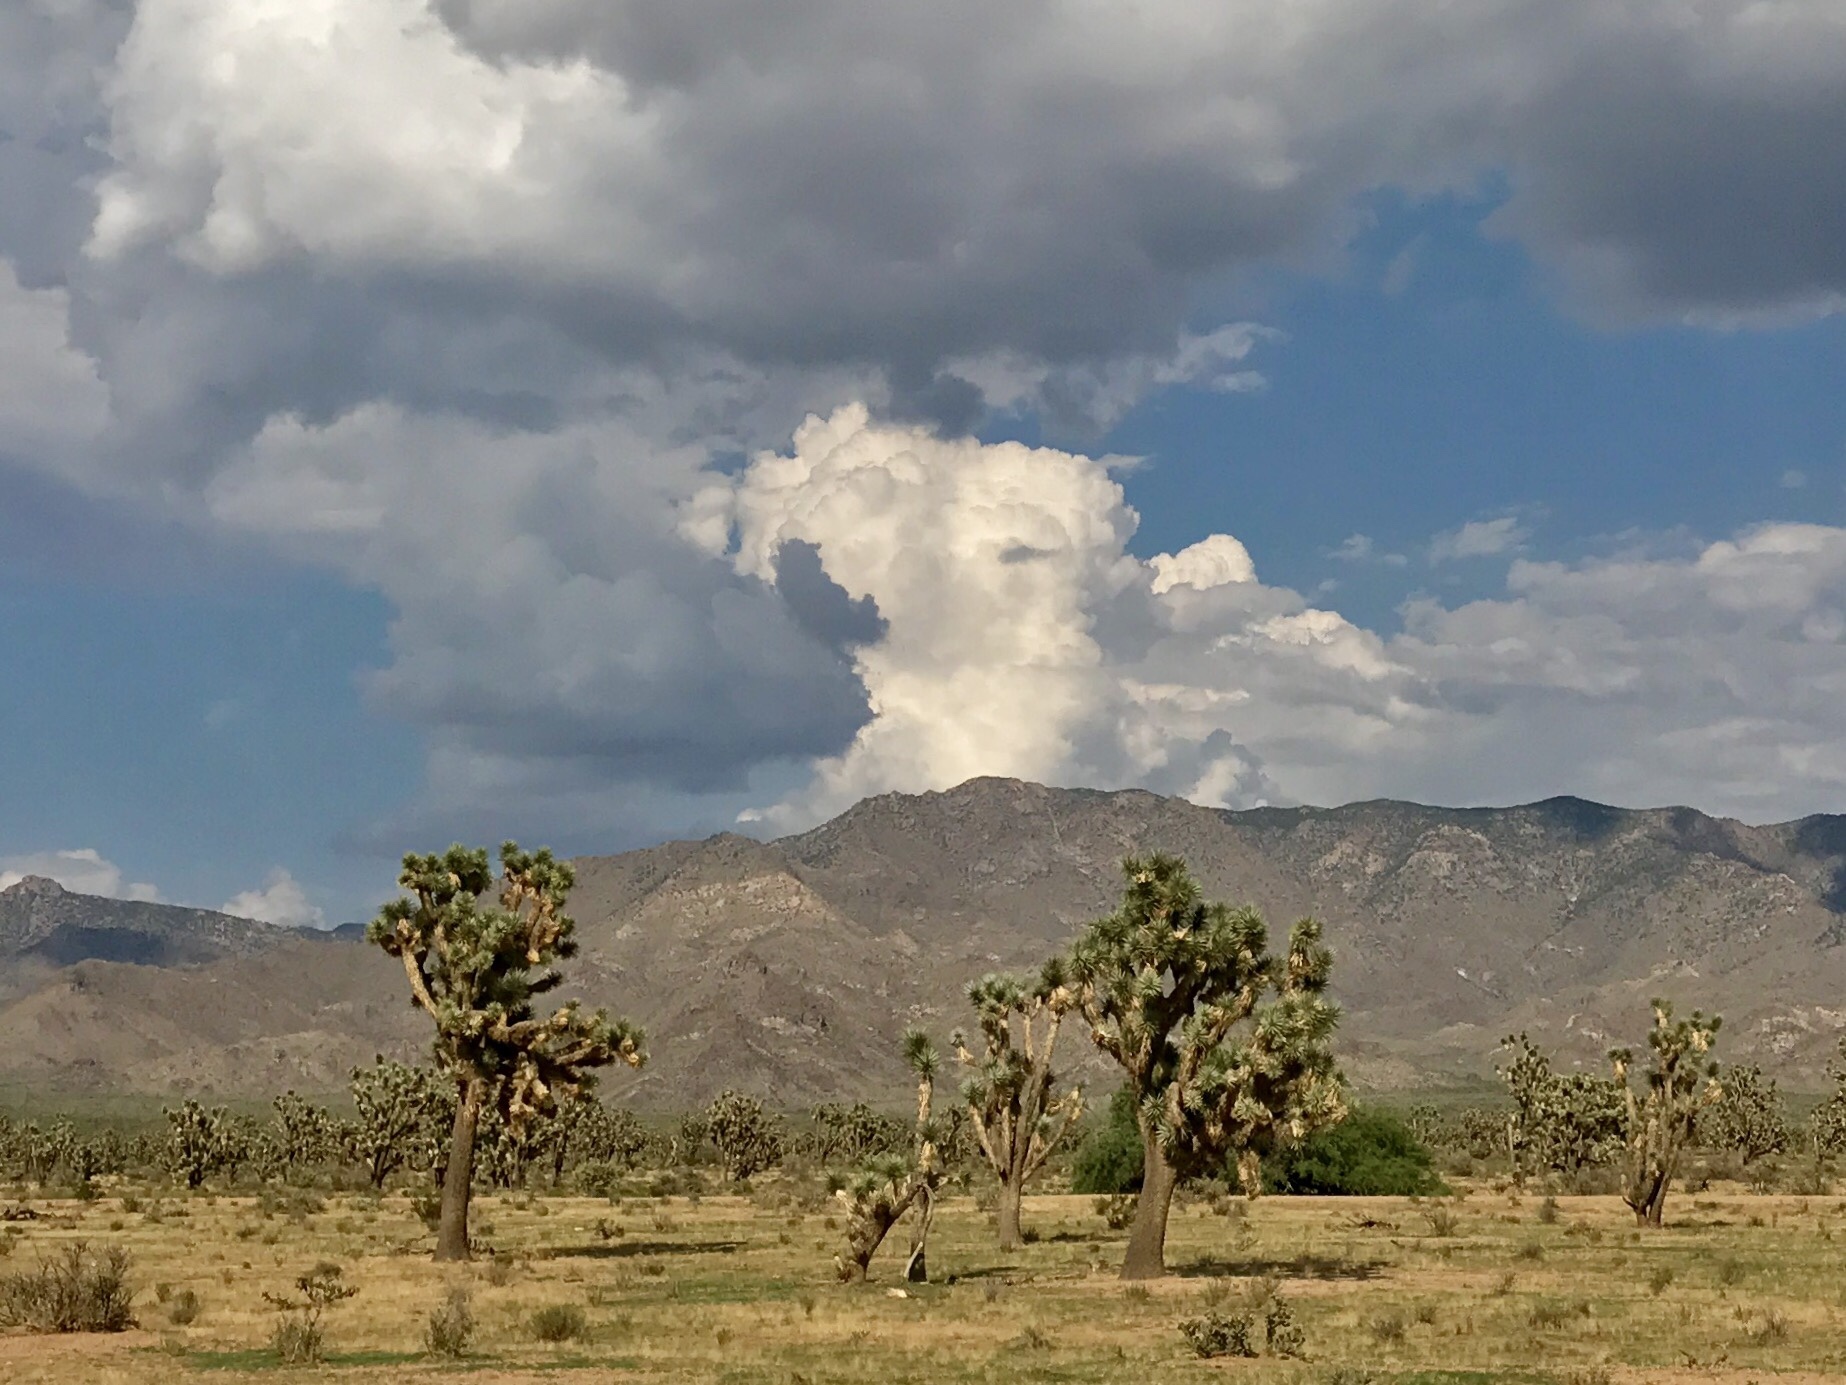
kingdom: Plantae
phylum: Tracheophyta
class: Liliopsida
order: Asparagales
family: Asparagaceae
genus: Yucca
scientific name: Yucca brevifolia
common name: Joshua tree
